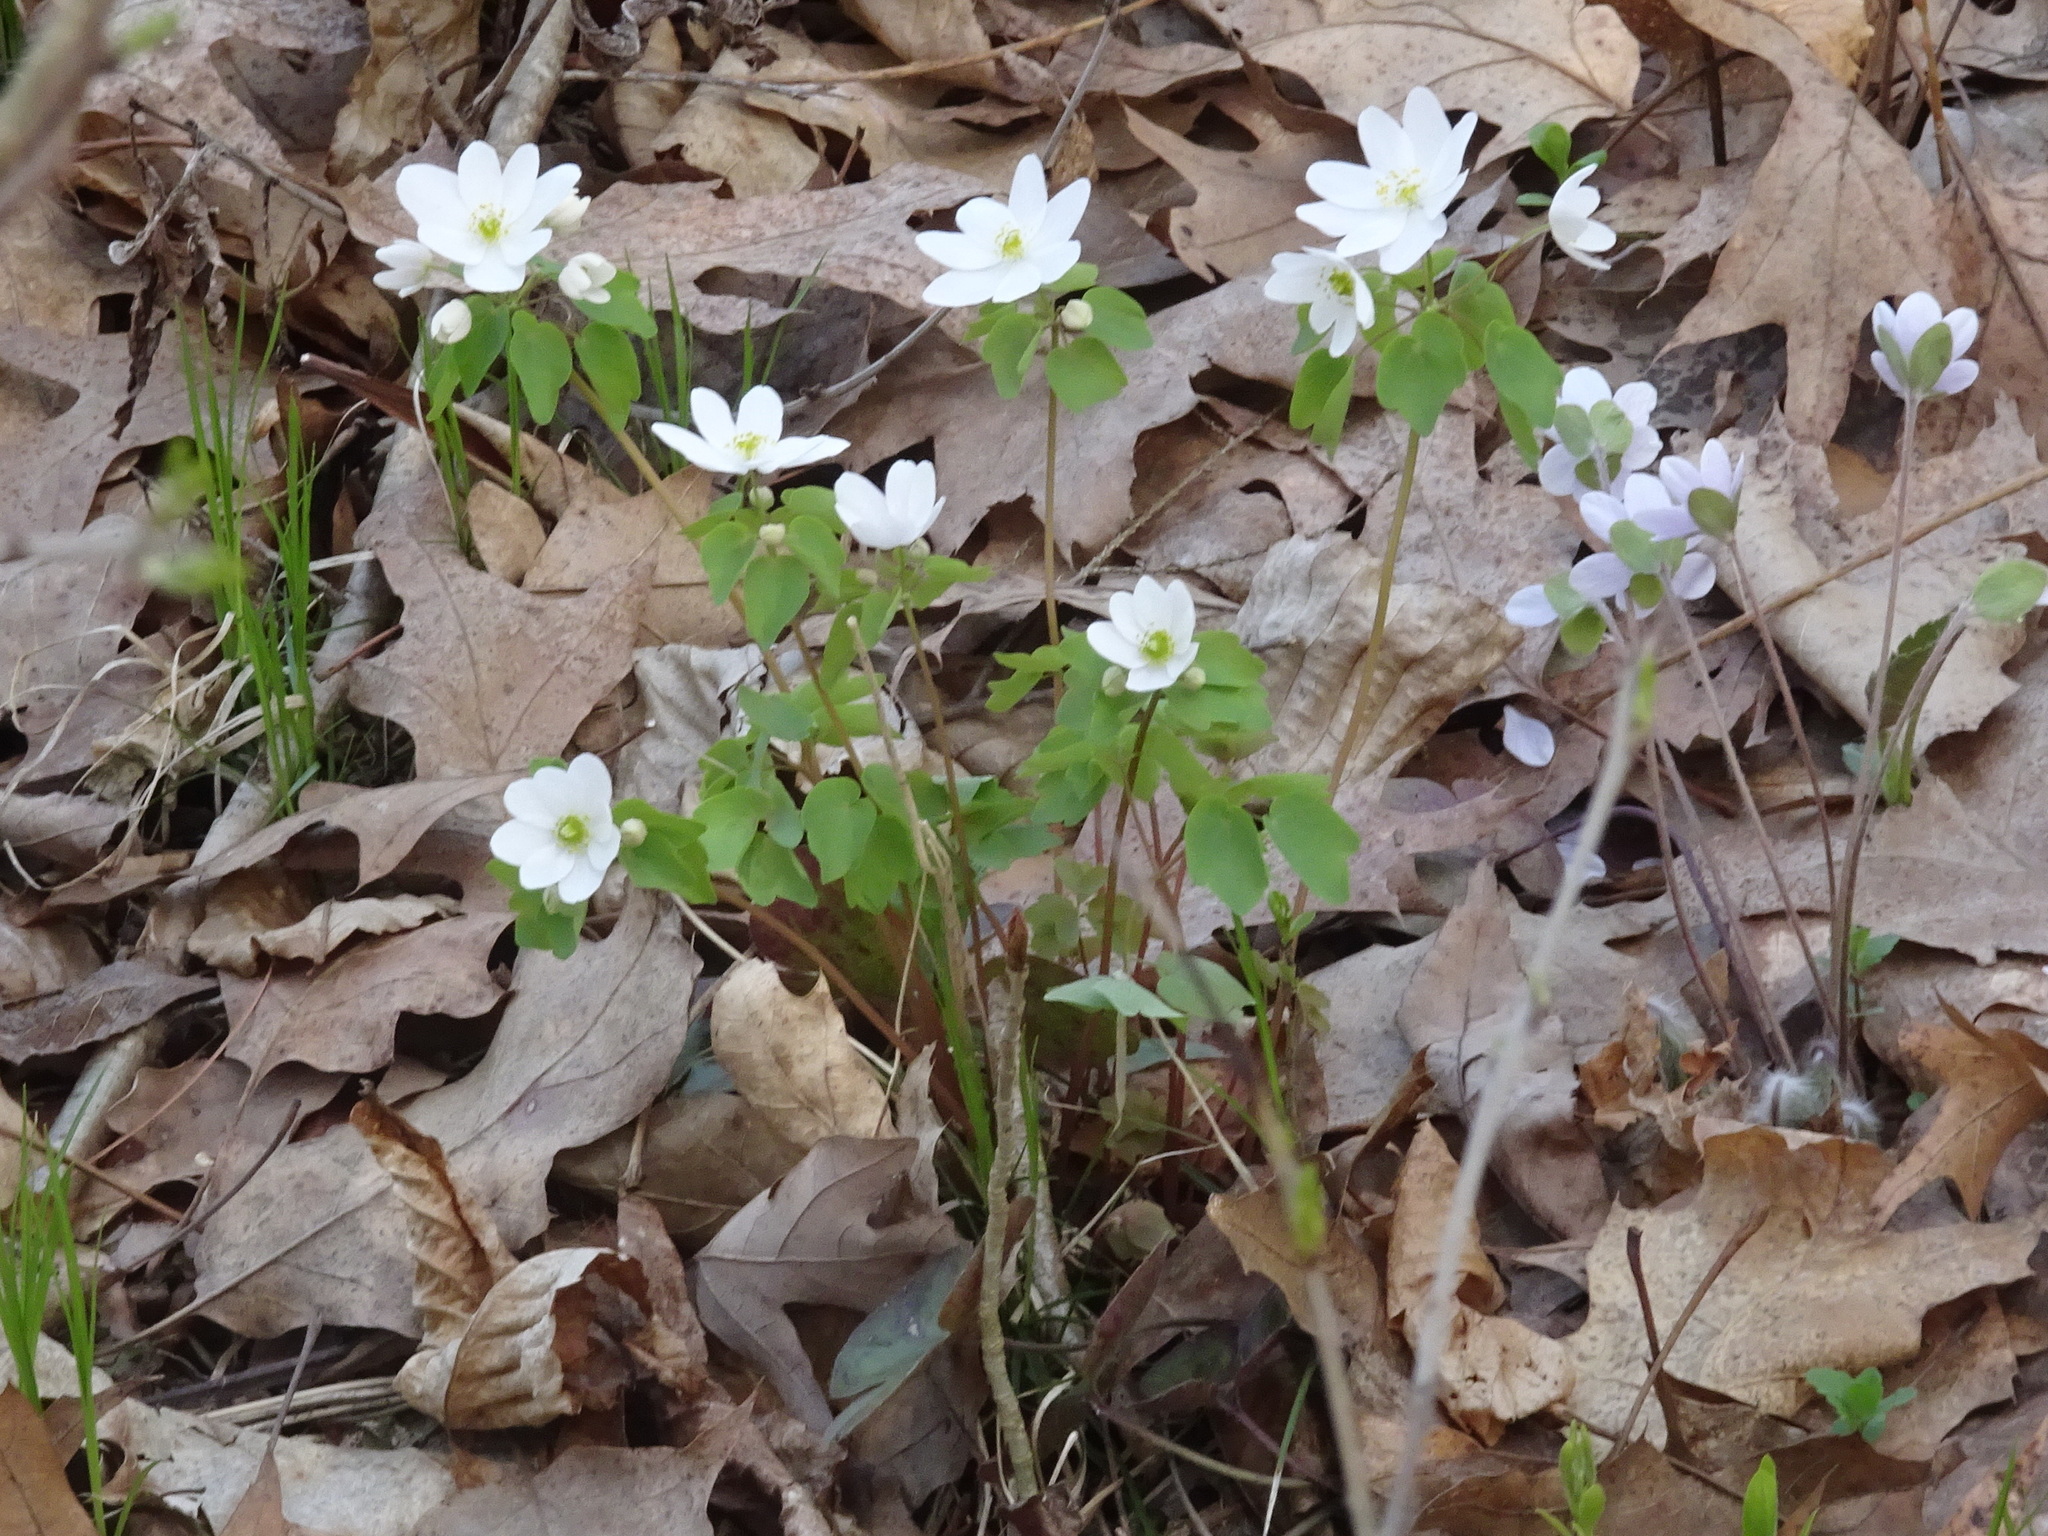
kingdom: Plantae
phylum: Tracheophyta
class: Magnoliopsida
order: Ranunculales
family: Ranunculaceae
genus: Thalictrum
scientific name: Thalictrum thalictroides
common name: Rue-anemone
